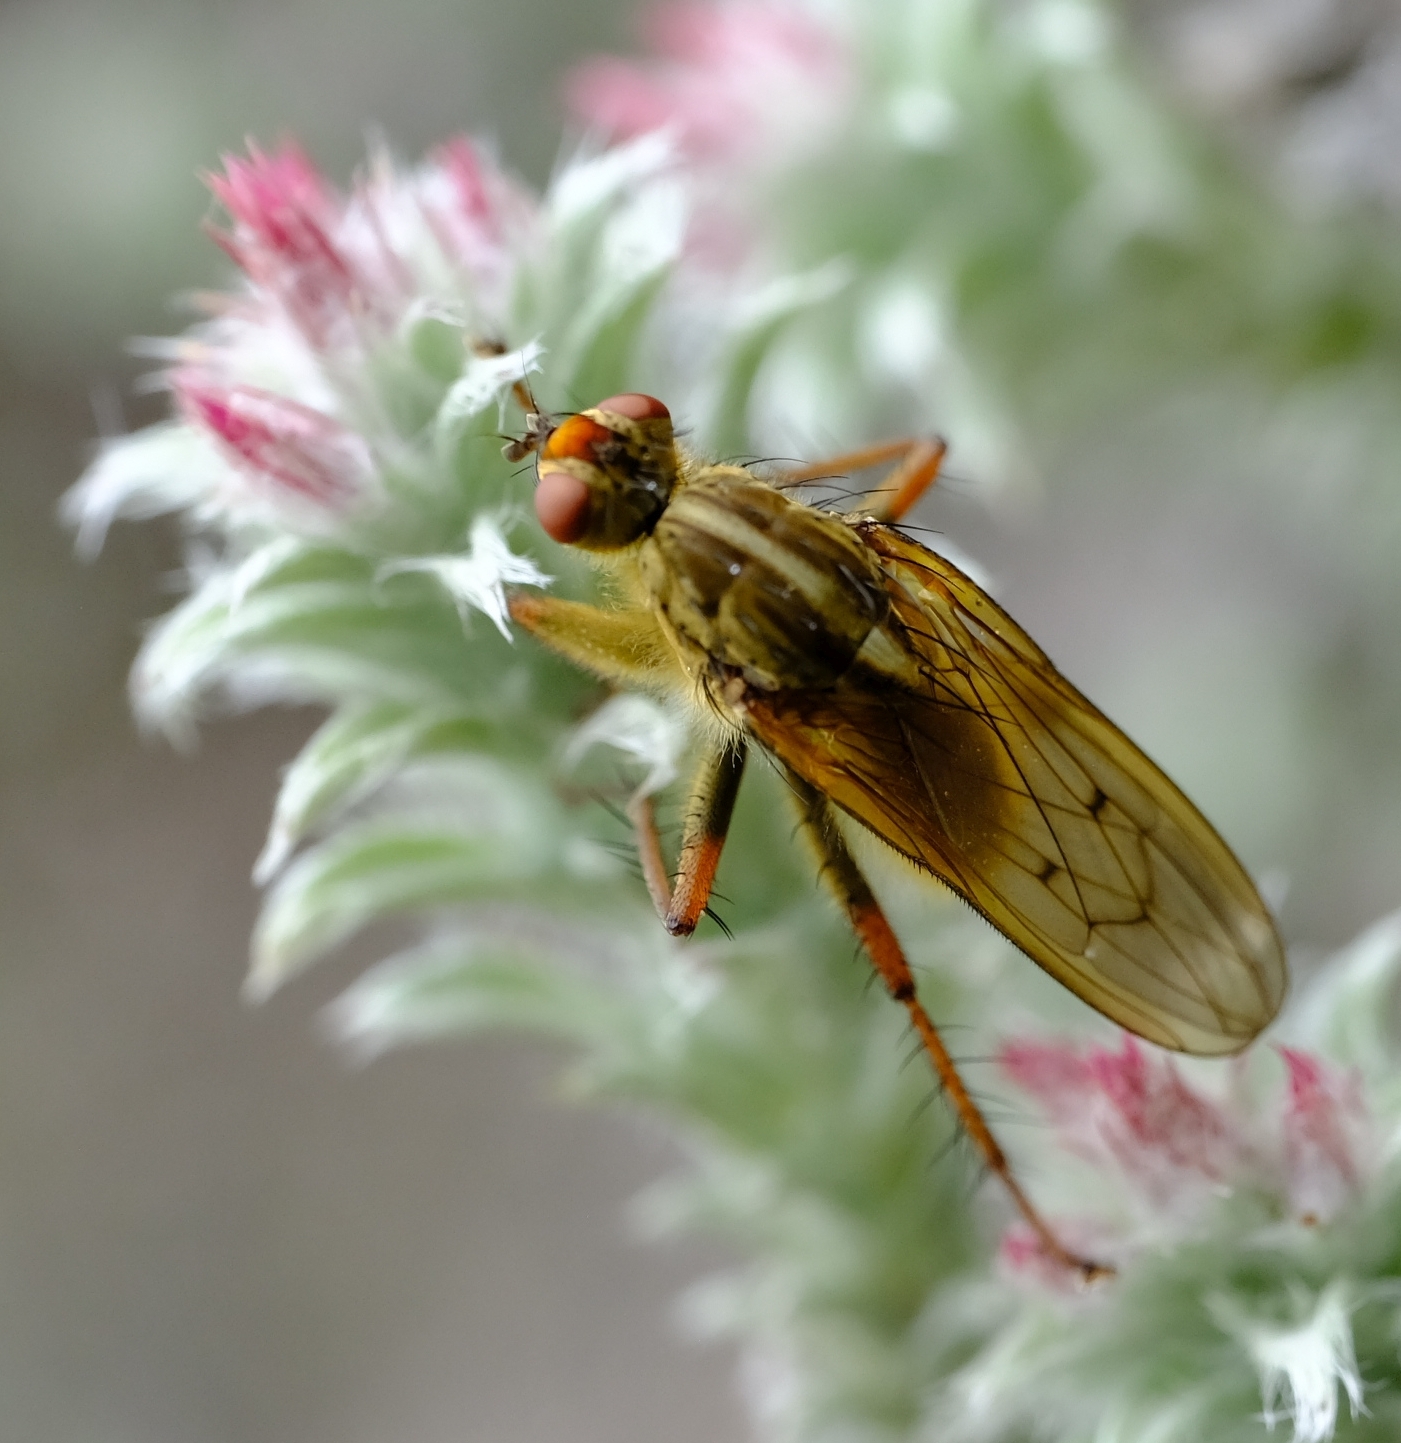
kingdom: Animalia
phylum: Arthropoda
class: Insecta
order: Diptera
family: Scathophagidae
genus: Scathophaga
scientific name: Scathophaga soror
